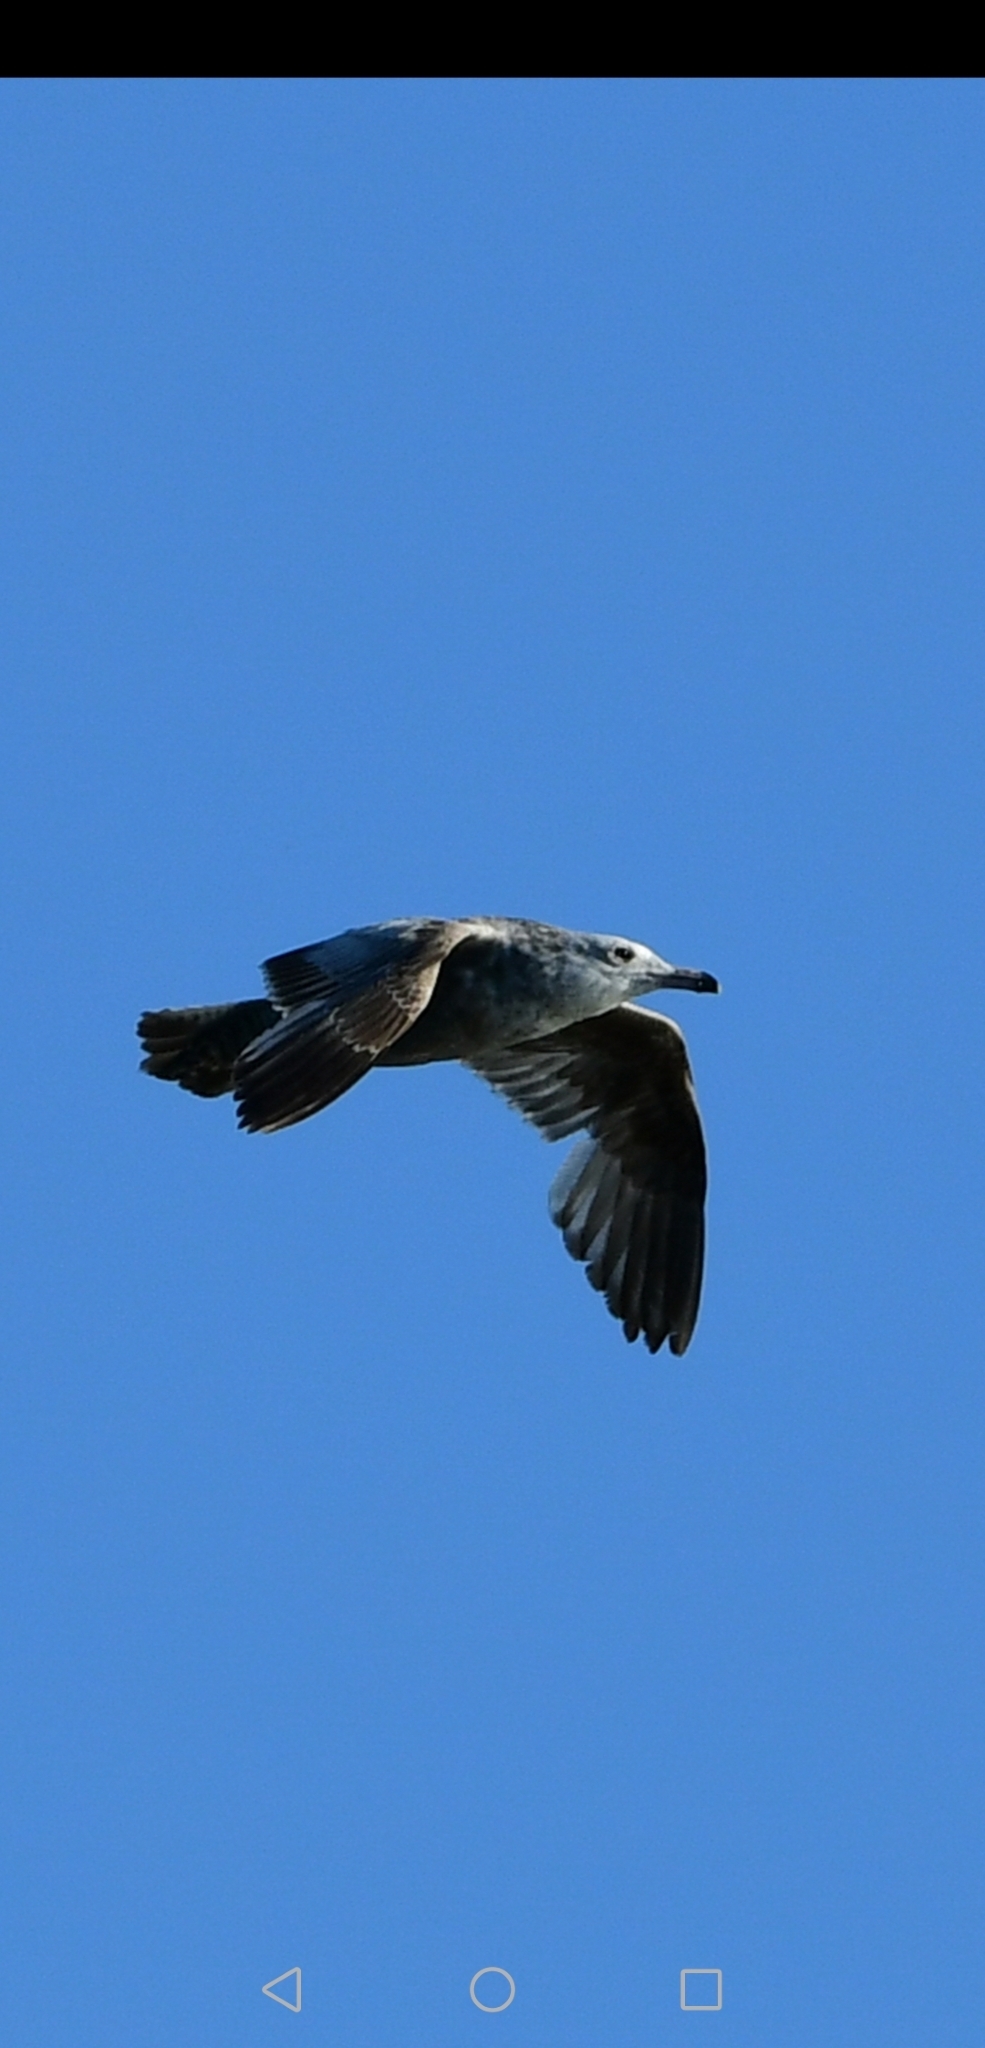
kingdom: Animalia
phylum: Chordata
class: Aves
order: Charadriiformes
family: Laridae
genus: Larus
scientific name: Larus argentatus
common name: Herring gull
